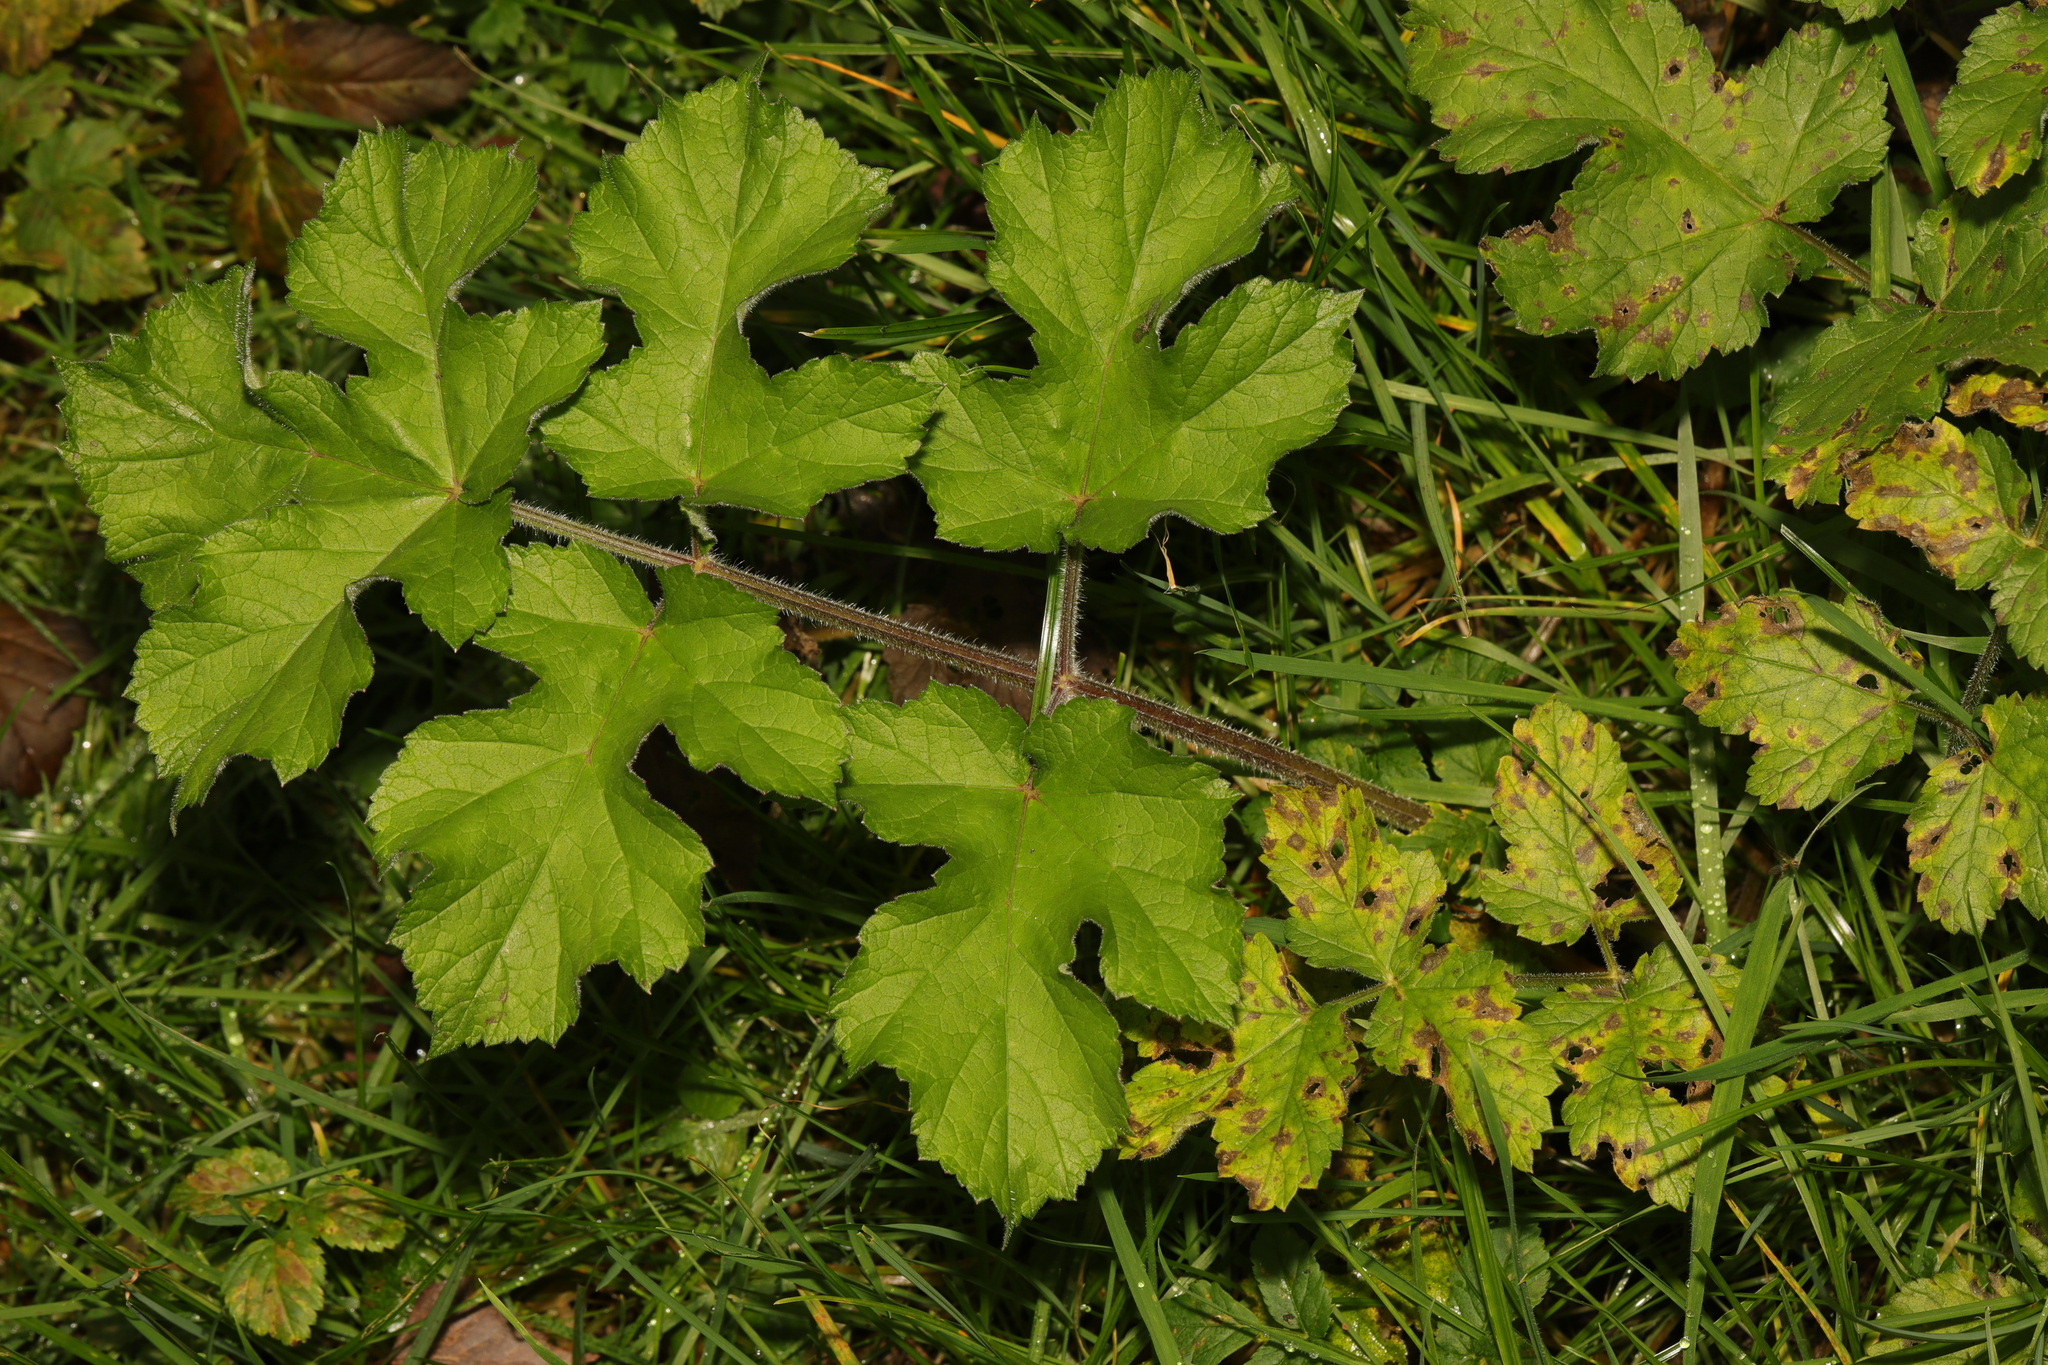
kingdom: Plantae
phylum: Tracheophyta
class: Magnoliopsida
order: Apiales
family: Apiaceae
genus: Heracleum
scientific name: Heracleum sphondylium
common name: Hogweed
